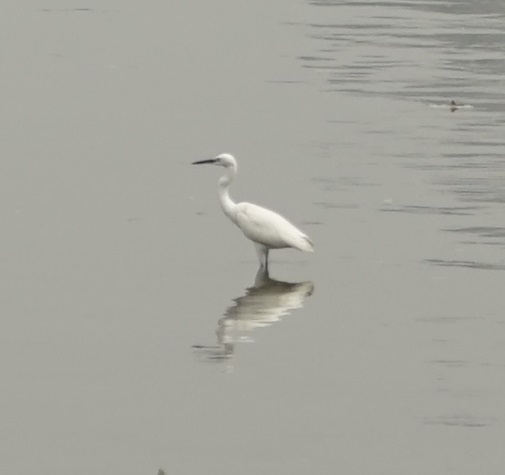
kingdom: Animalia
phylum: Chordata
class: Aves
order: Pelecaniformes
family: Ardeidae
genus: Egretta
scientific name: Egretta garzetta
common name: Little egret
